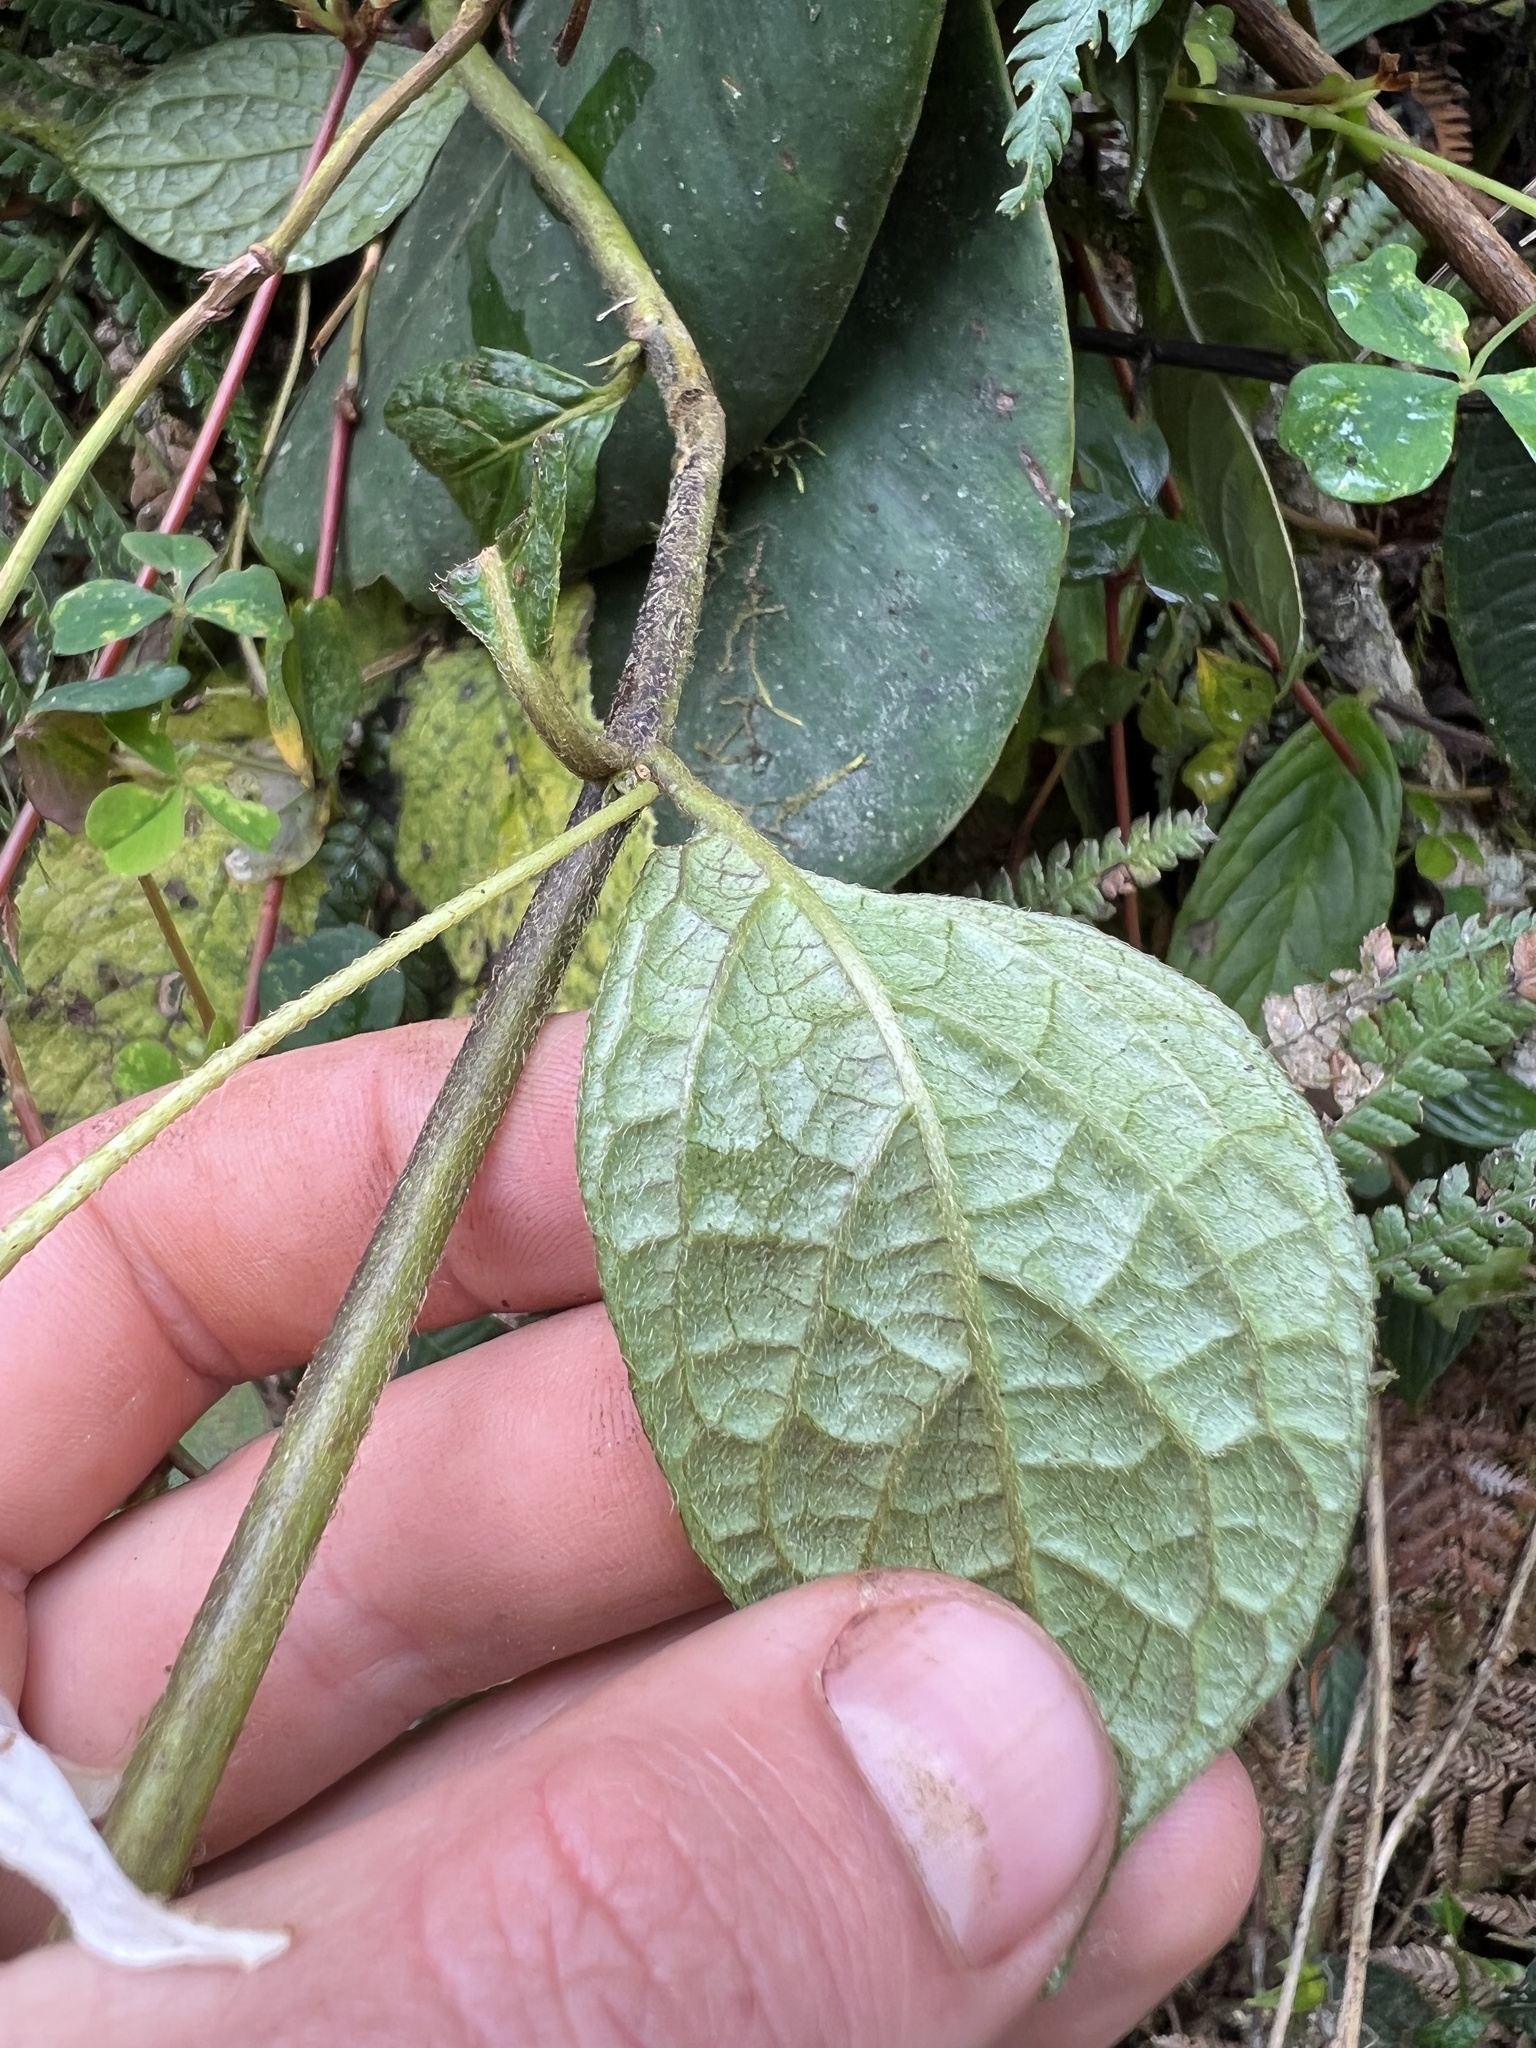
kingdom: Plantae
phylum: Tracheophyta
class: Magnoliopsida
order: Solanales
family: Solanaceae
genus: Lycianthes
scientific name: Lycianthes acutifolia
